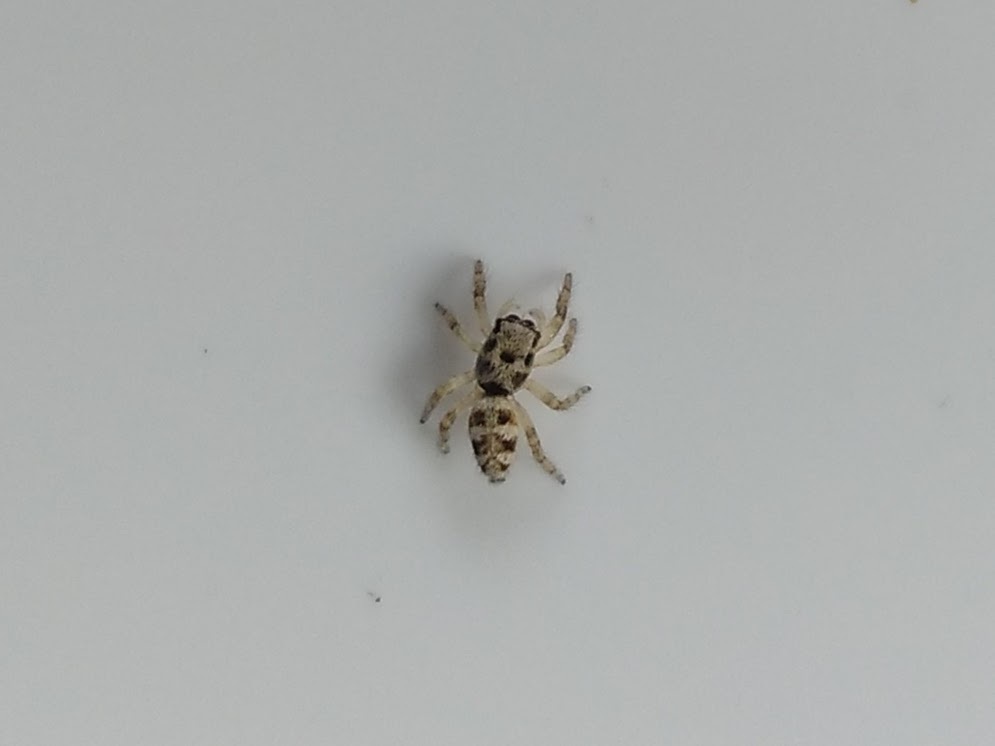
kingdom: Animalia
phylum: Arthropoda
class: Arachnida
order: Araneae
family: Salticidae
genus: Salticus
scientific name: Salticus scenicus
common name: Zebra jumper
